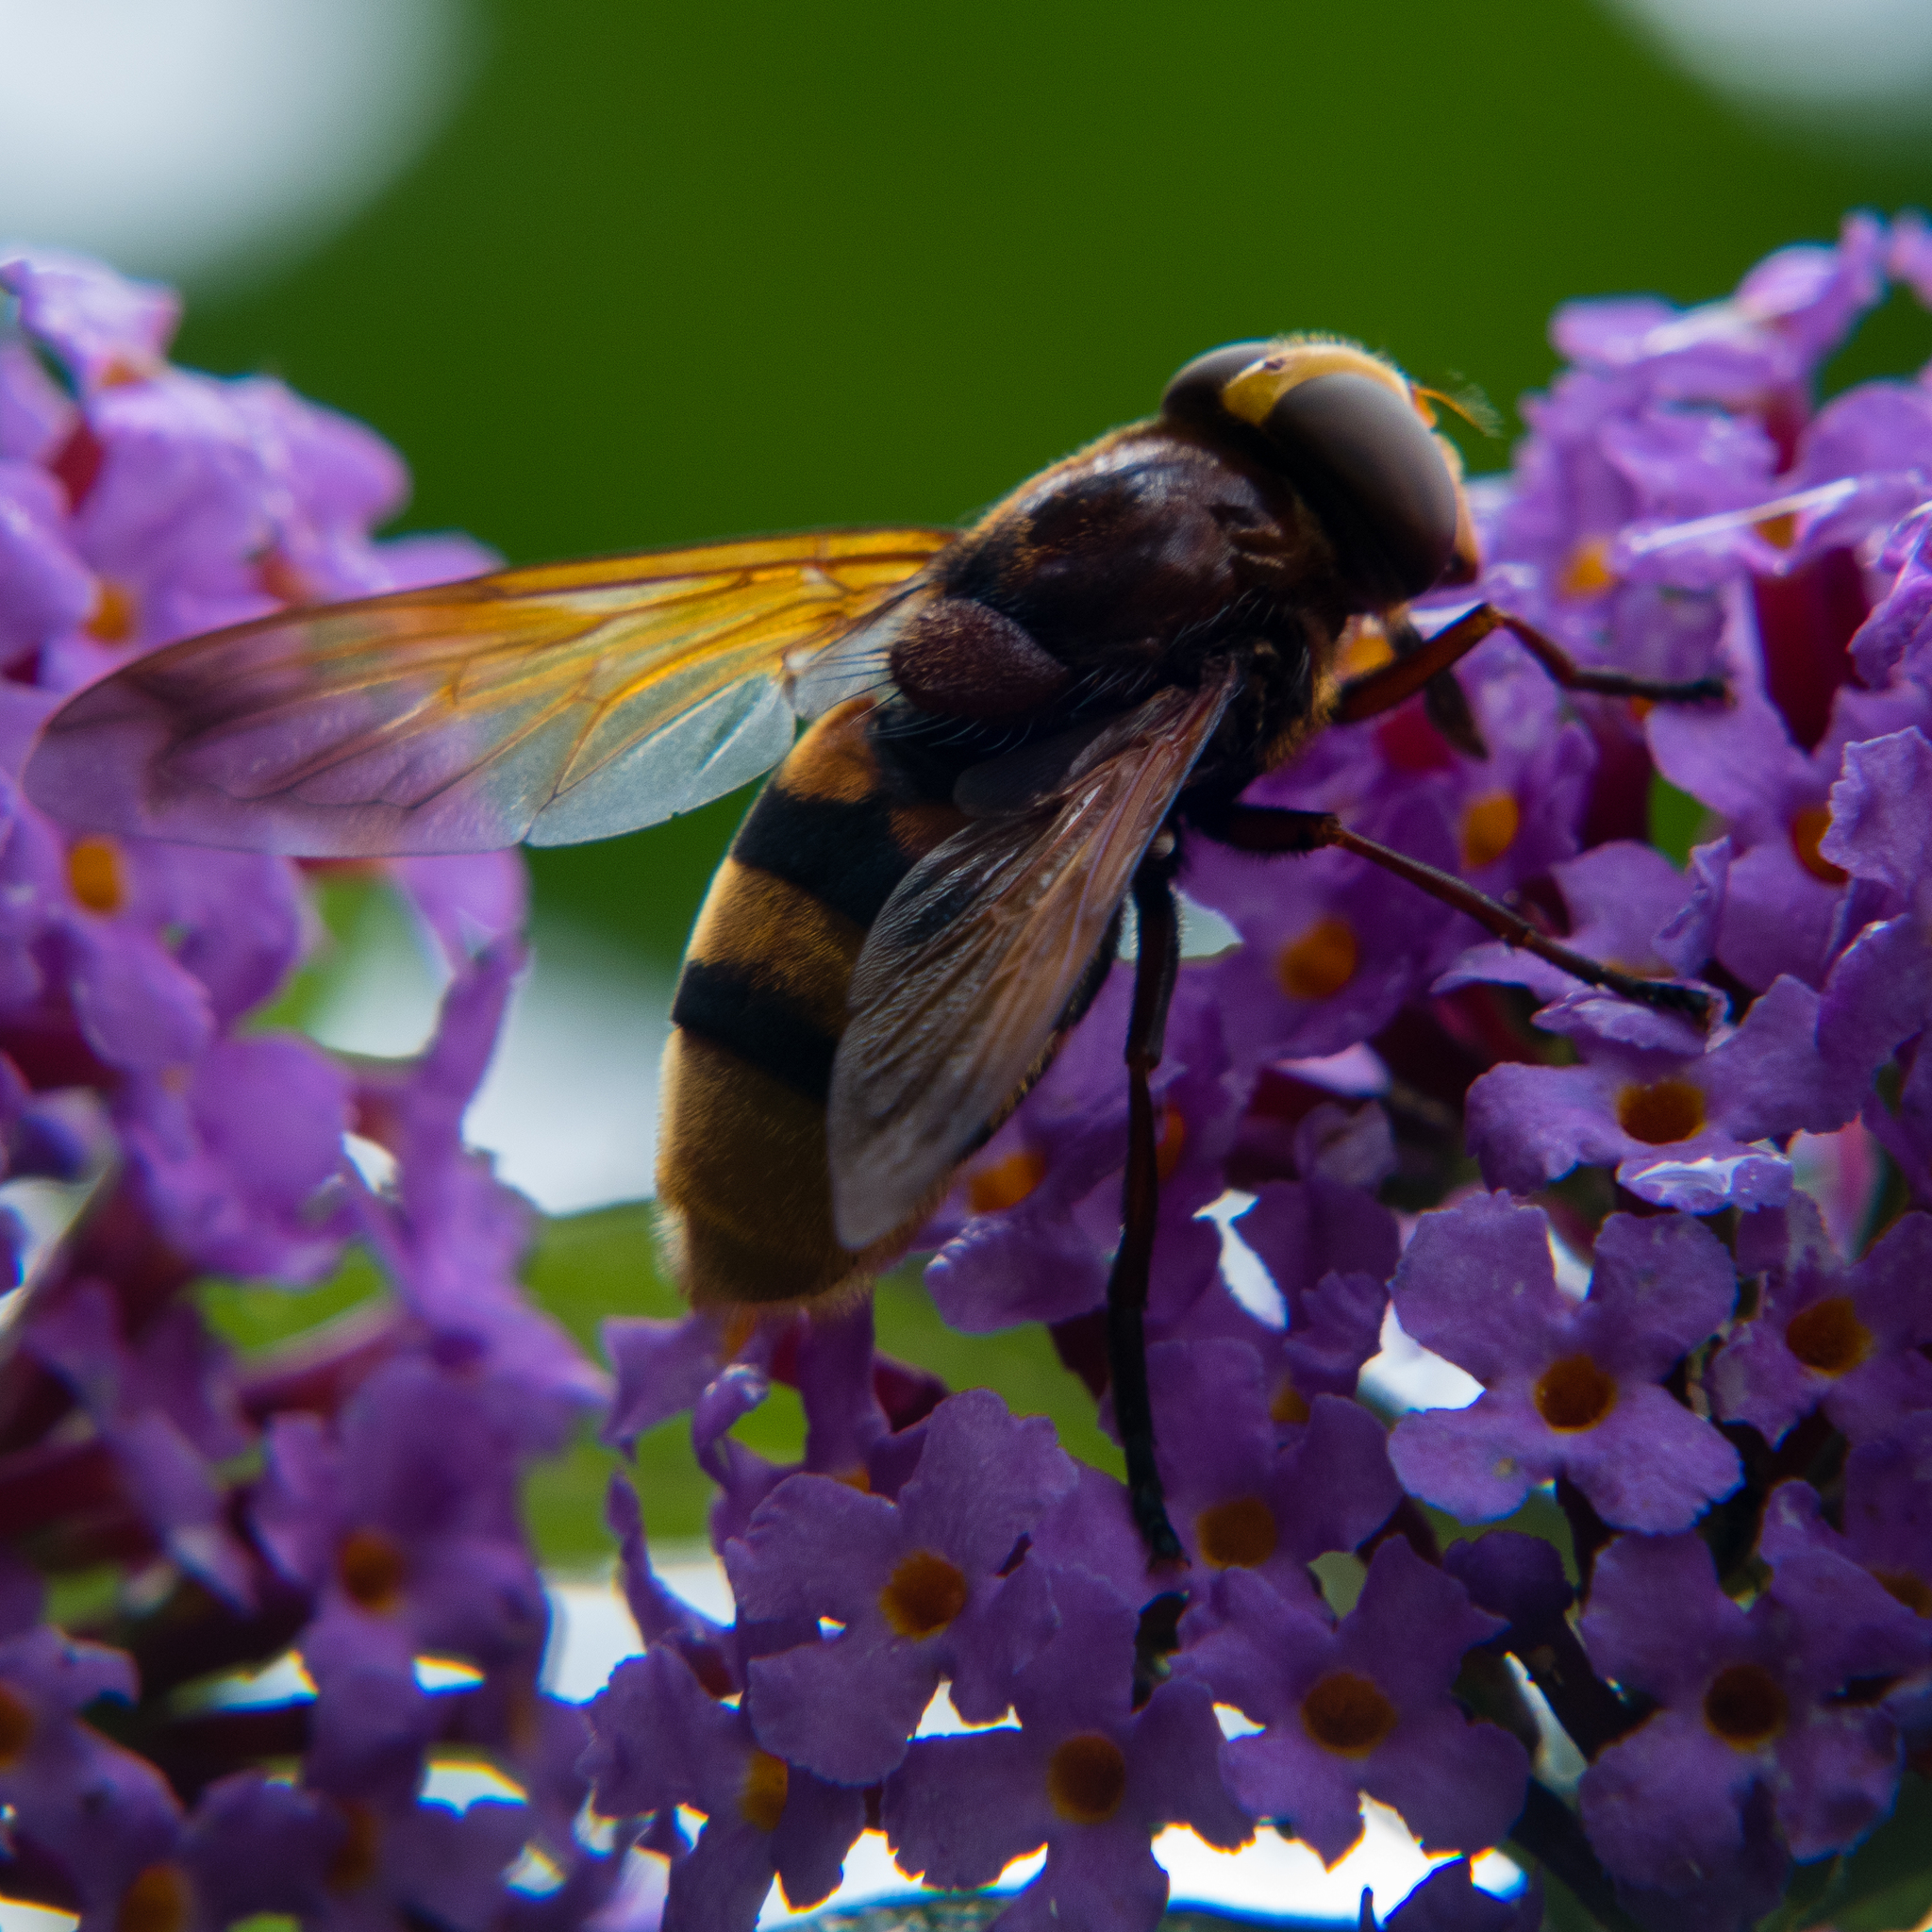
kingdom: Animalia
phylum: Arthropoda
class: Insecta
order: Diptera
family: Syrphidae
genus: Volucella
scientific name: Volucella zonaria
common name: Hornet hoverfly
